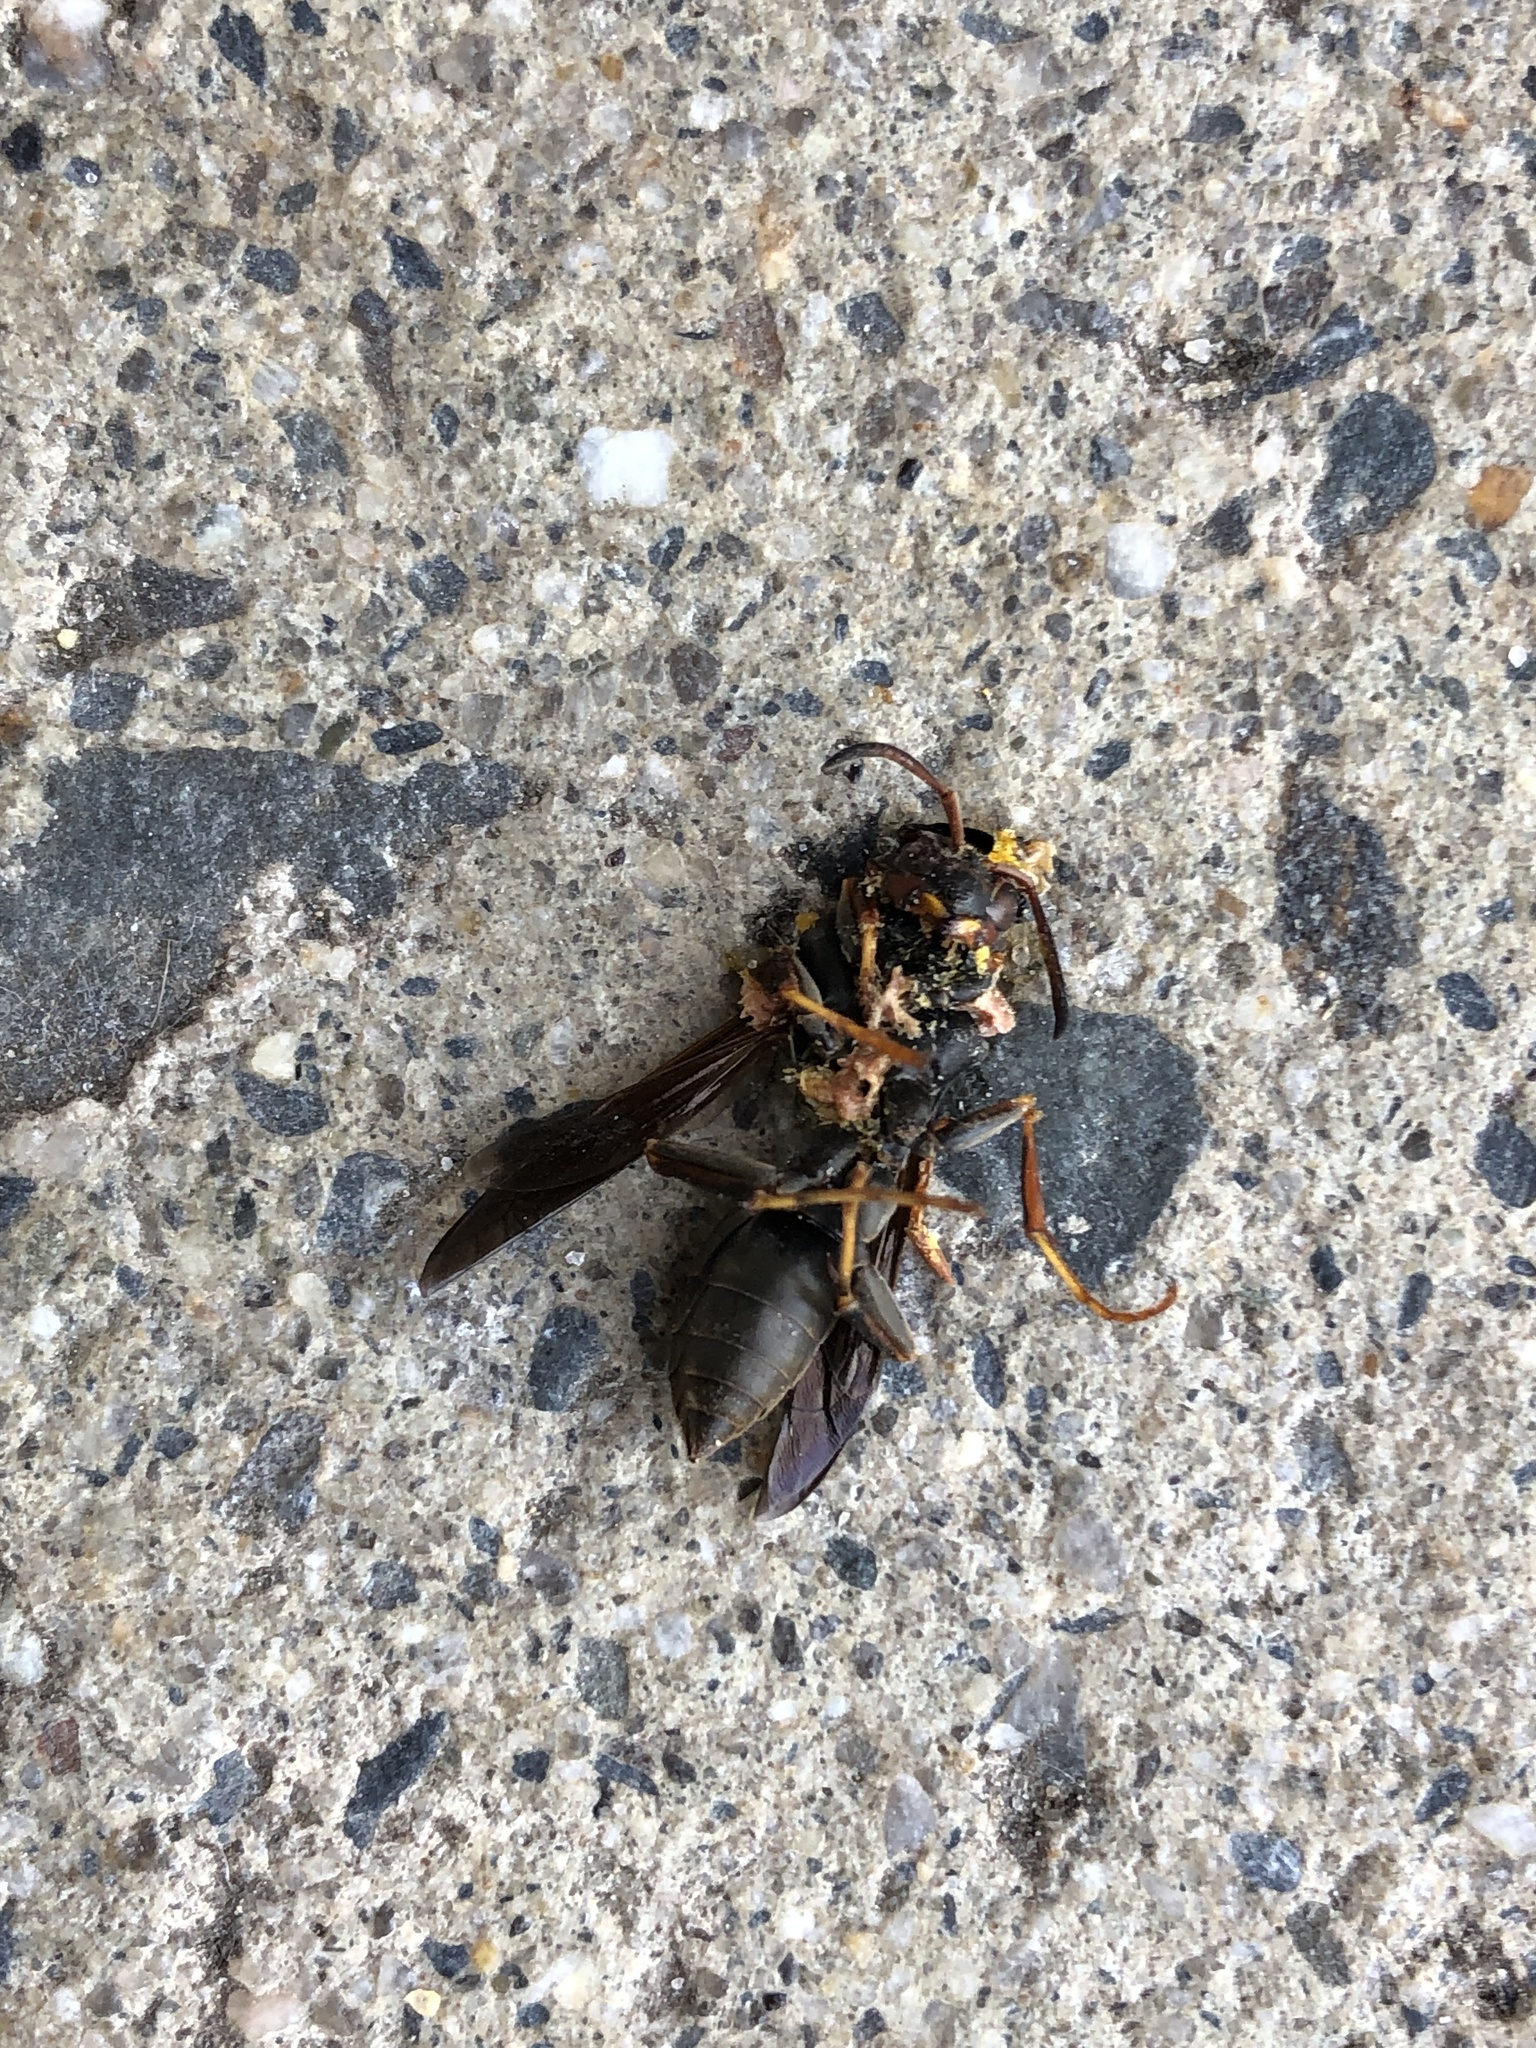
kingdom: Animalia
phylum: Arthropoda
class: Insecta
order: Hymenoptera
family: Vespidae
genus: Fuscopolistes
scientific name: Fuscopolistes
